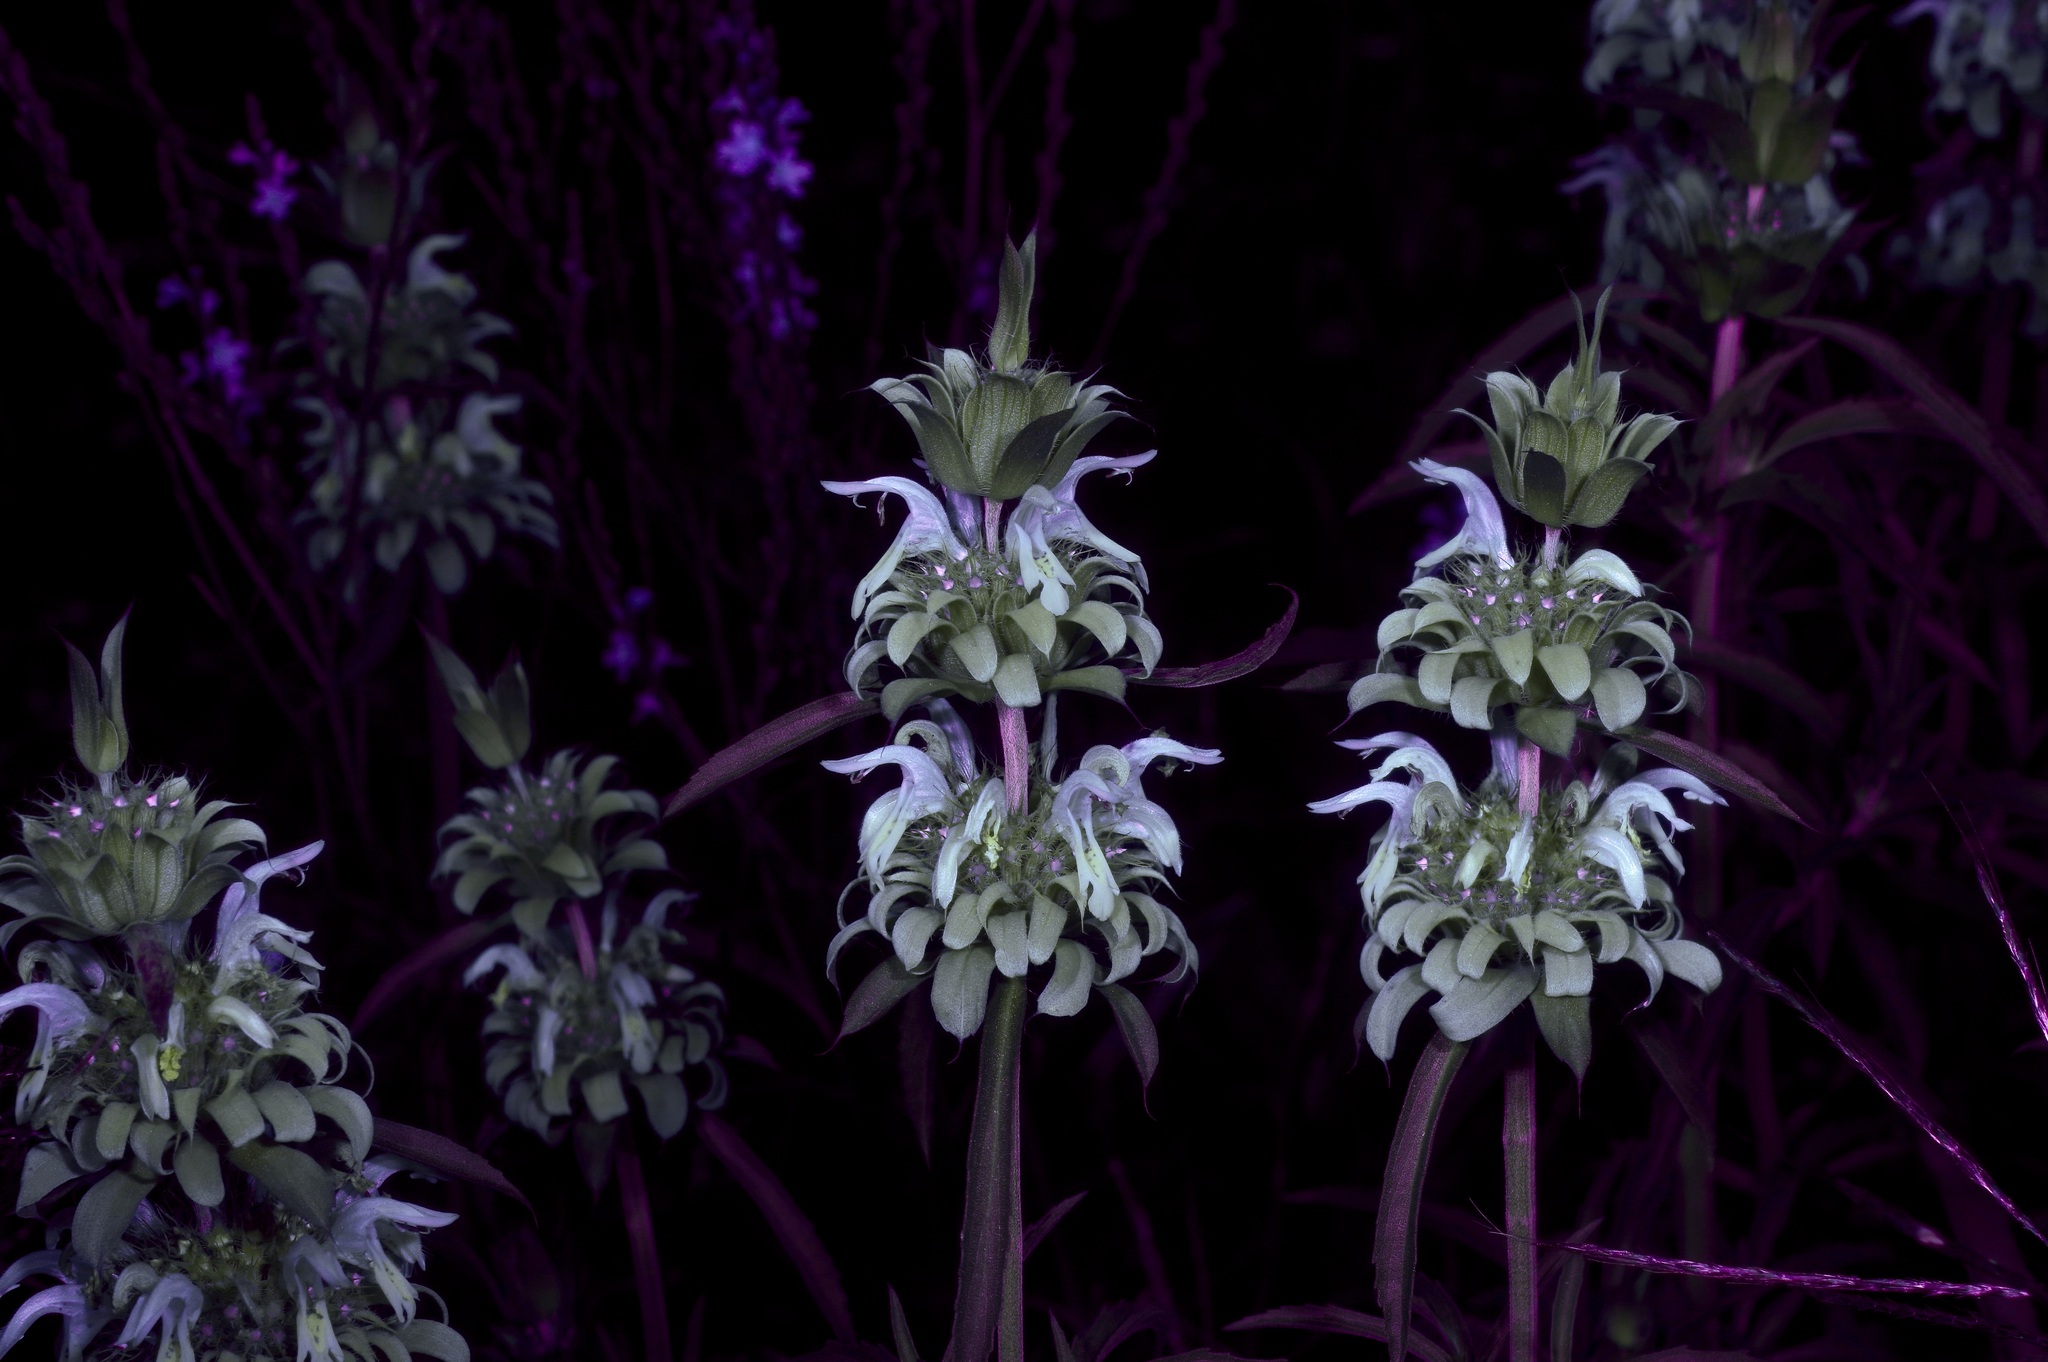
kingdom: Plantae
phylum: Tracheophyta
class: Magnoliopsida
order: Lamiales
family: Lamiaceae
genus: Monarda
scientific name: Monarda citriodora
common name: Lemon beebalm
